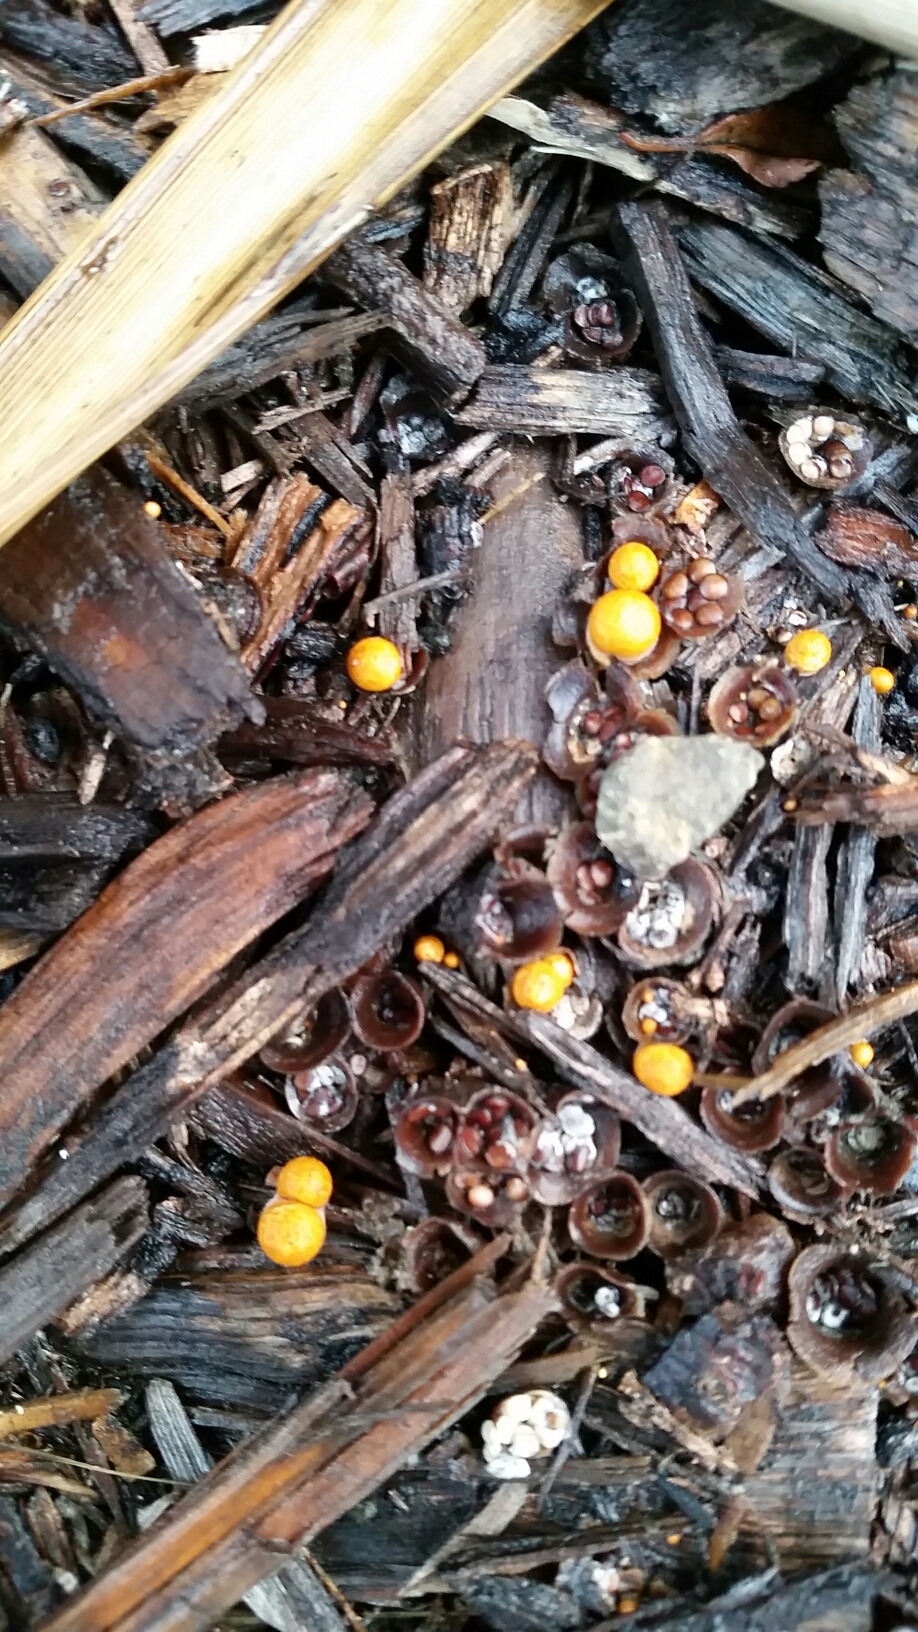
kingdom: Fungi
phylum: Basidiomycota
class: Agaricomycetes
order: Agaricales
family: Nidulariaceae
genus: Crucibulum
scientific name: Crucibulum laeve
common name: Common bird's nest
